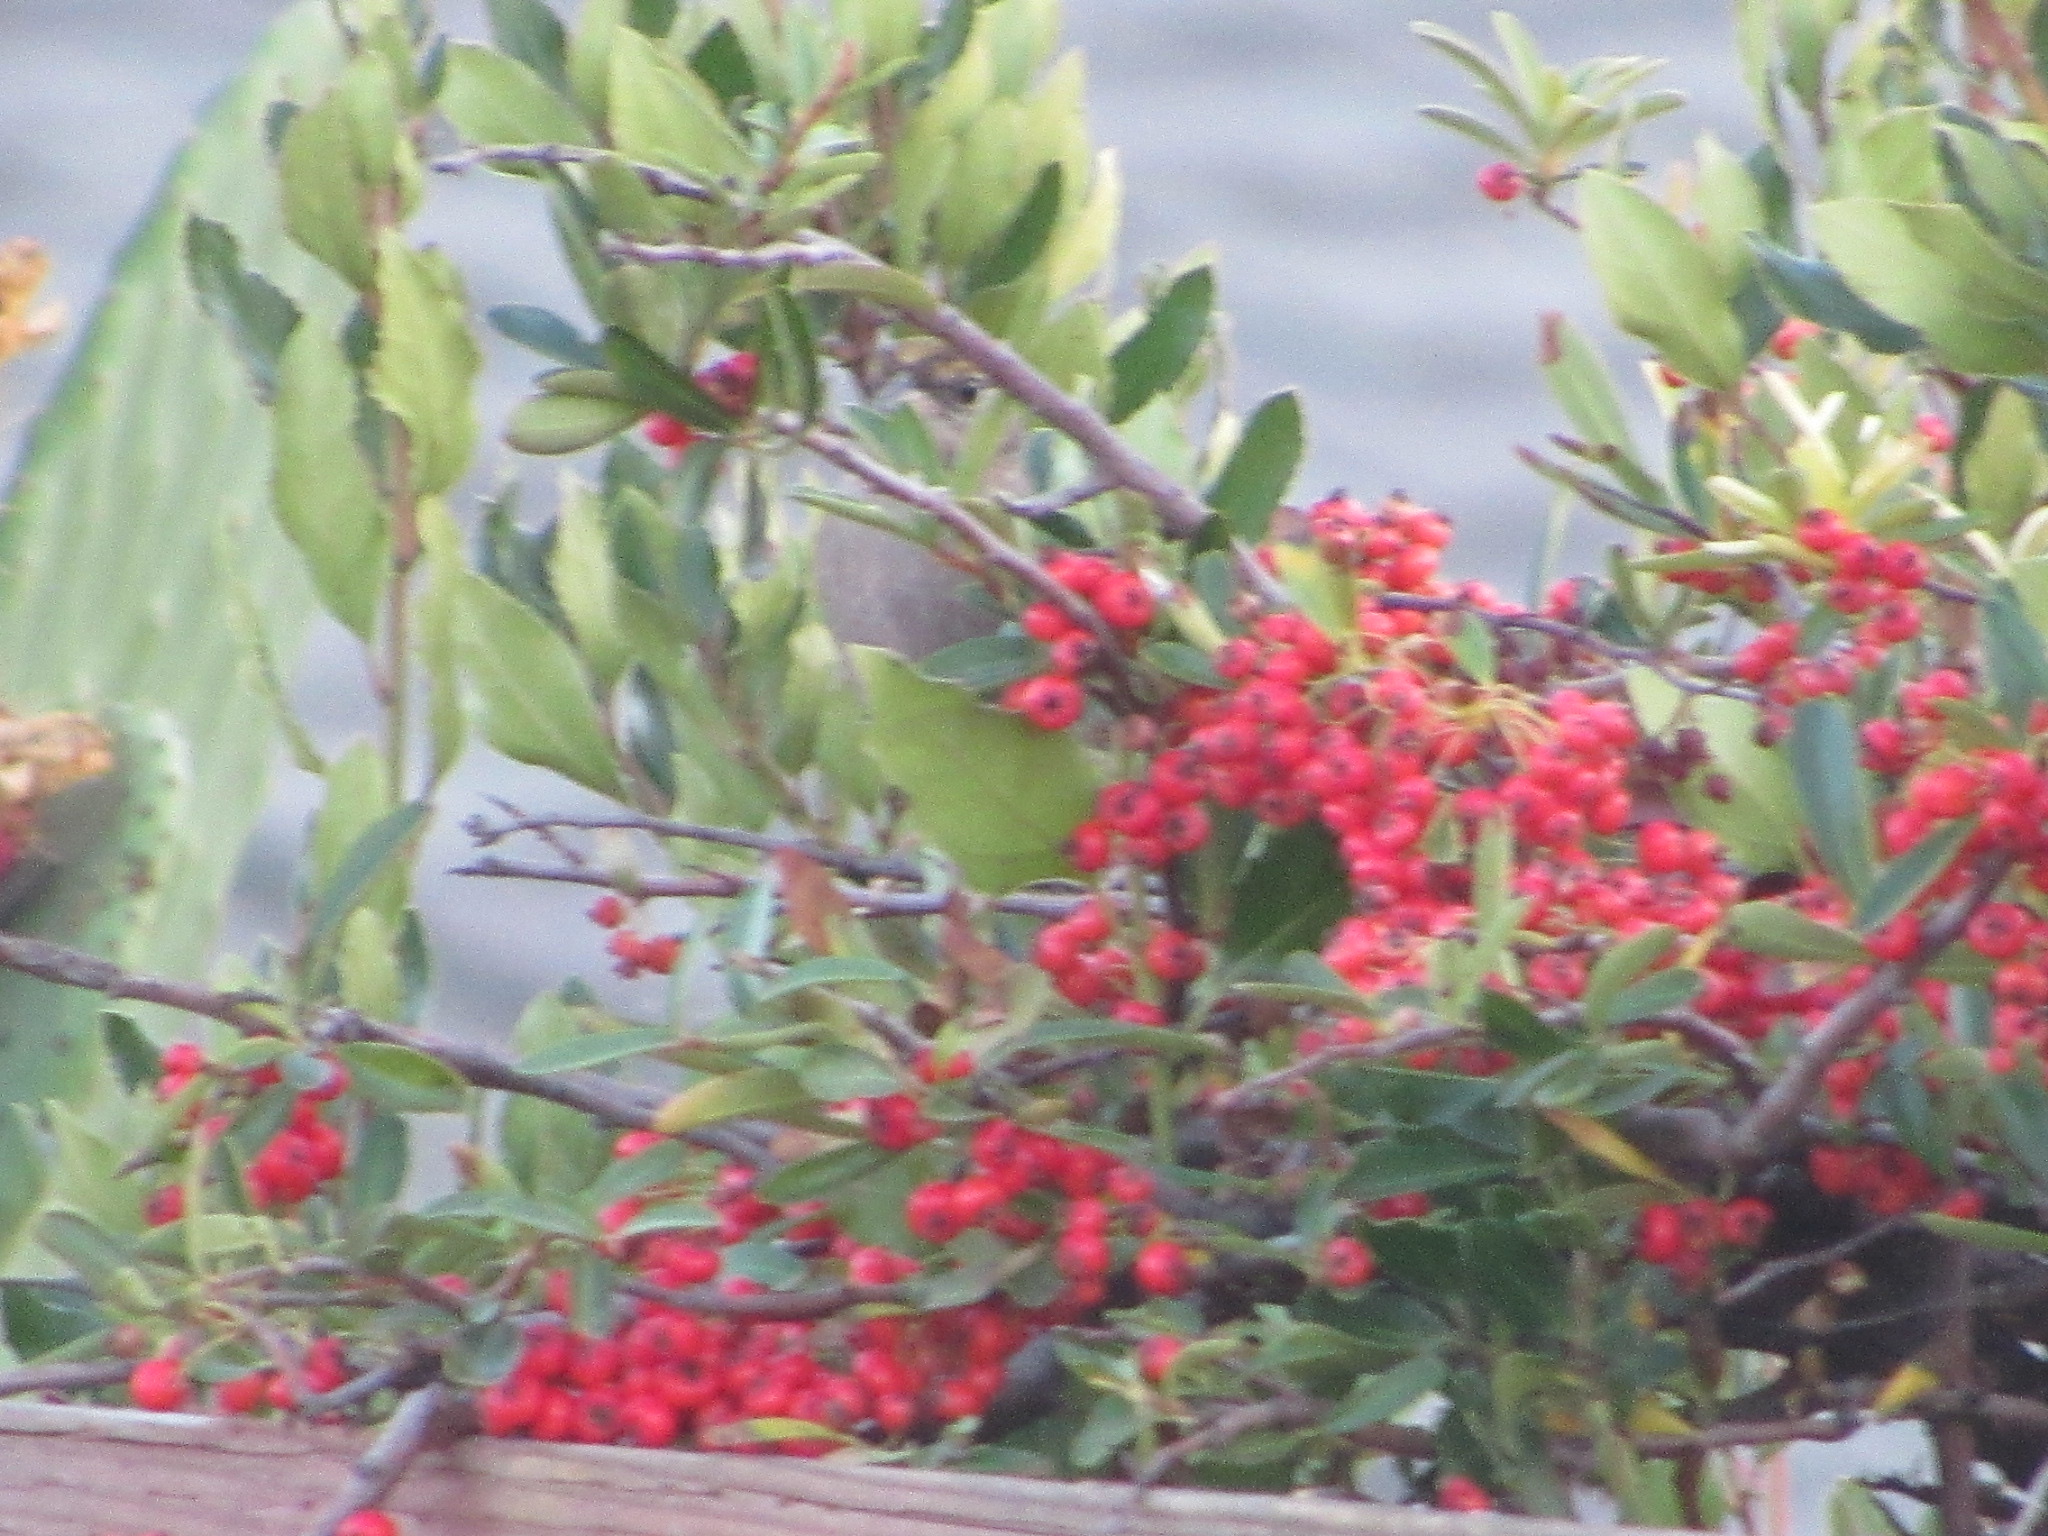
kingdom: Animalia
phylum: Chordata
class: Aves
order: Passeriformes
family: Passerellidae
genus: Zonotrichia
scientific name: Zonotrichia atricapilla
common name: Golden-crowned sparrow
